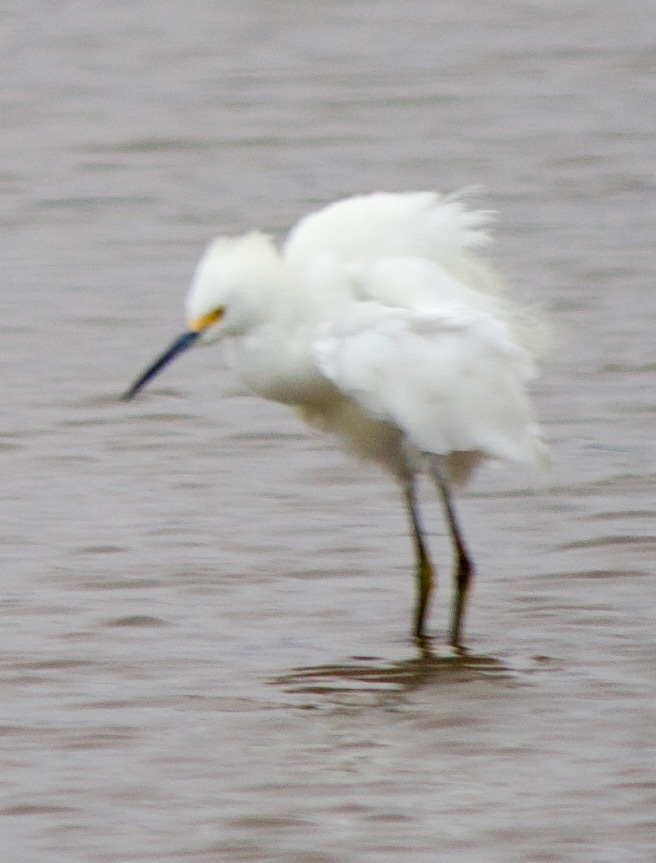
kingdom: Animalia
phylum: Chordata
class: Aves
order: Pelecaniformes
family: Ardeidae
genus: Egretta
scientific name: Egretta thula
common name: Snowy egret
